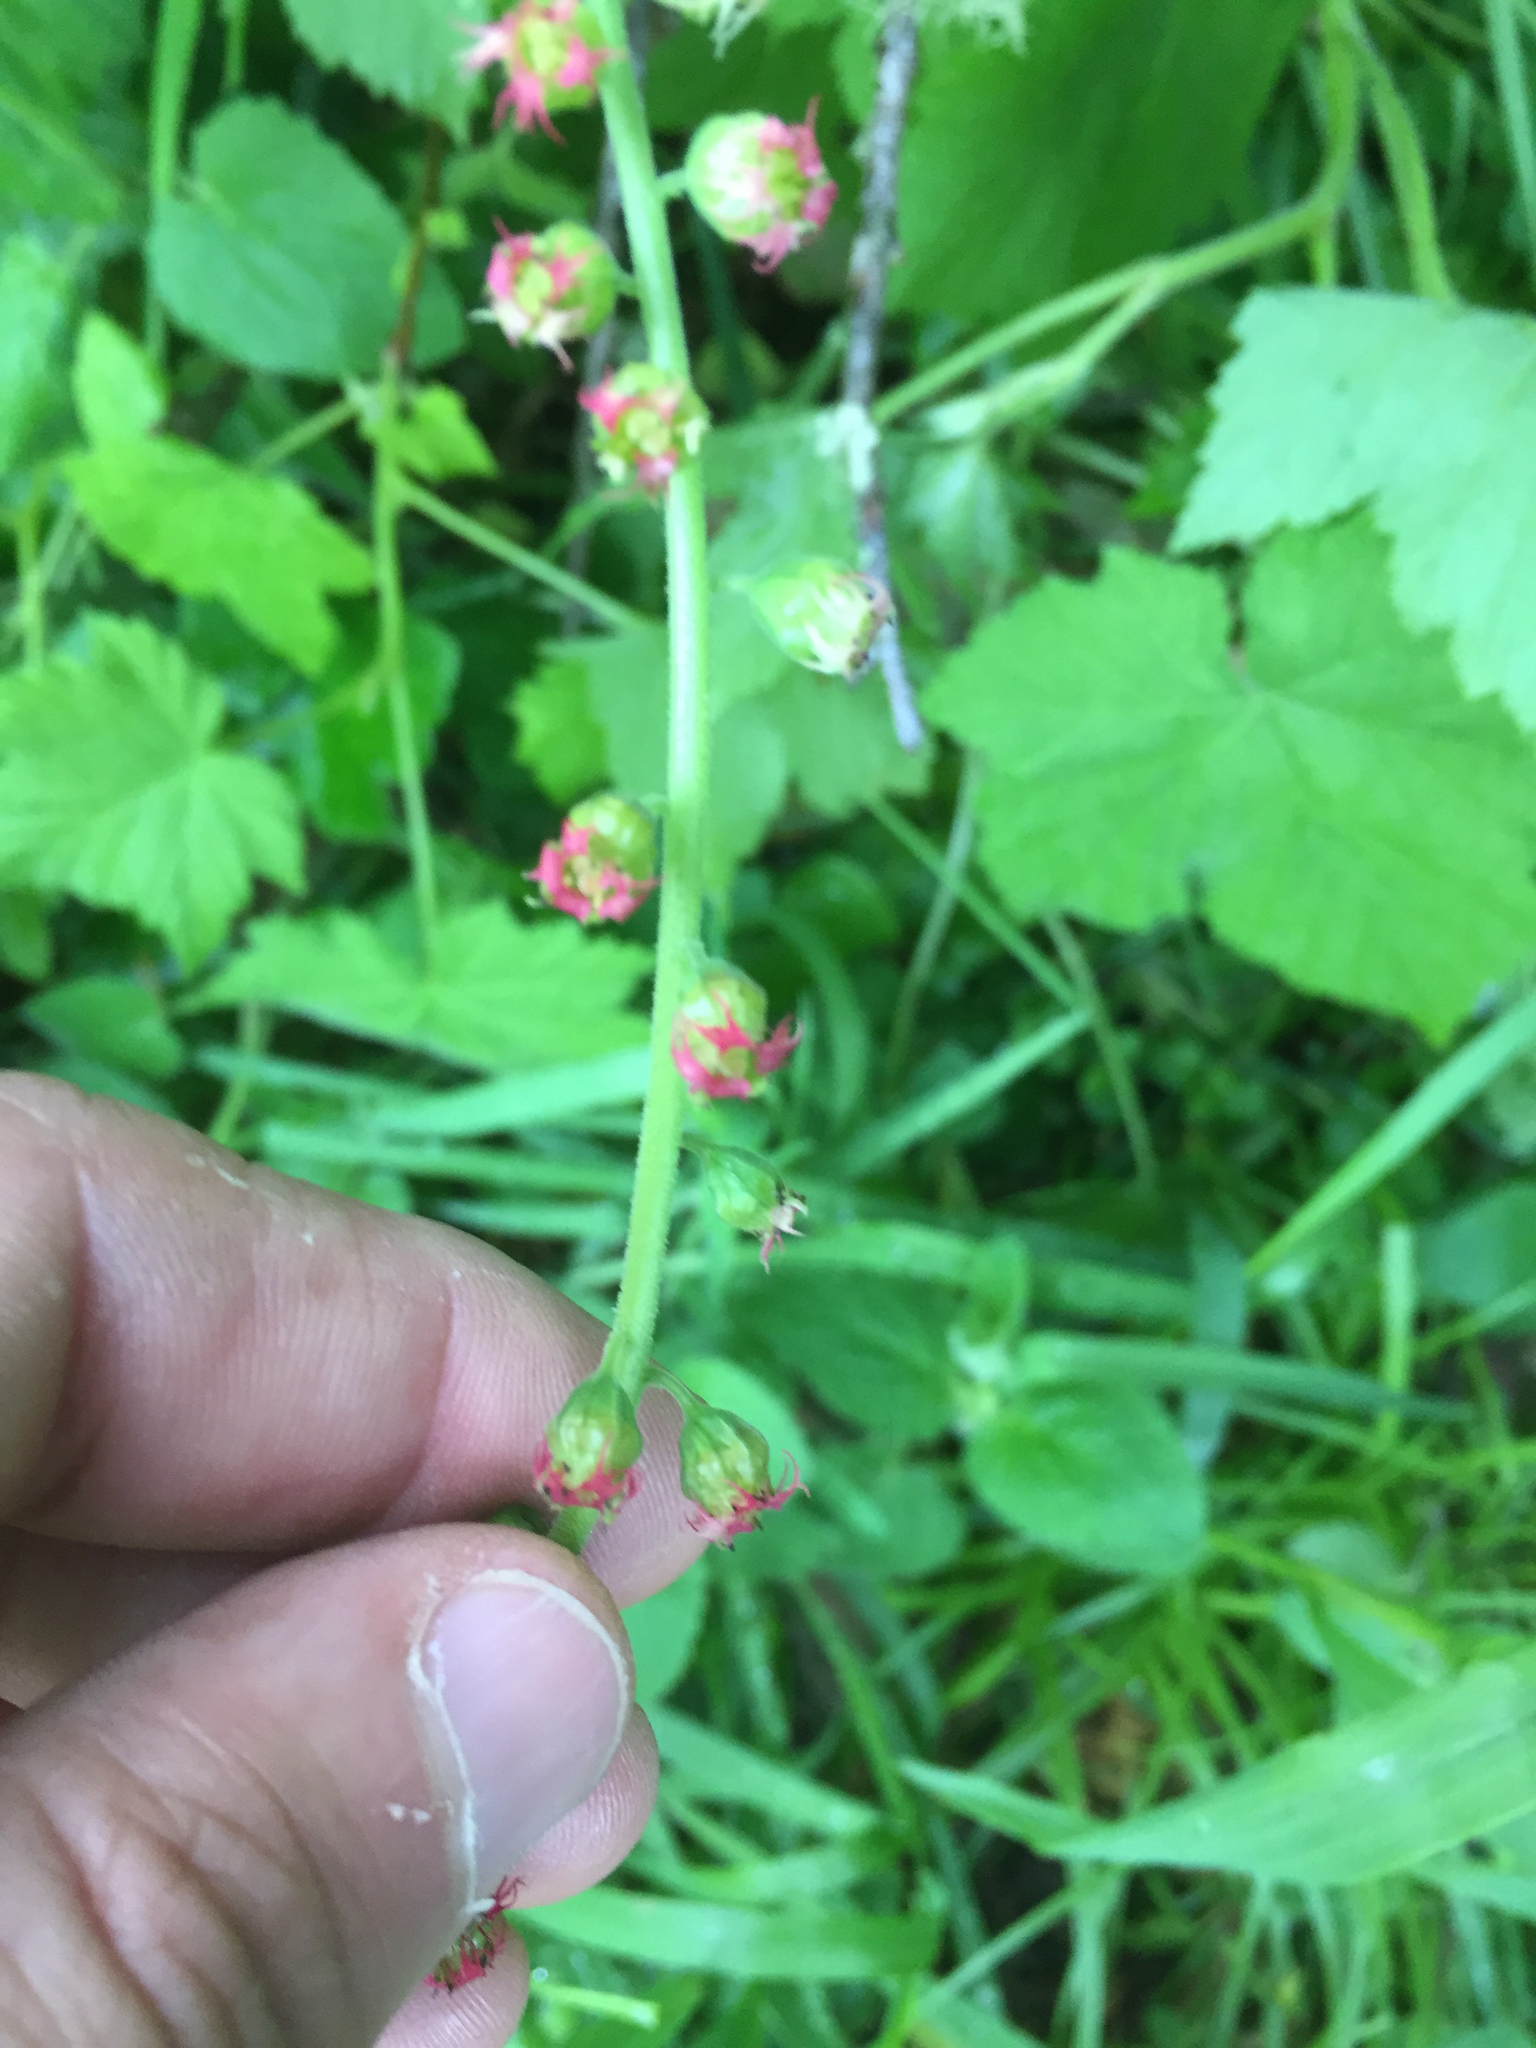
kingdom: Plantae
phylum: Tracheophyta
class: Magnoliopsida
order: Saxifragales
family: Saxifragaceae
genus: Tellima
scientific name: Tellima grandiflora
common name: Fringecups
